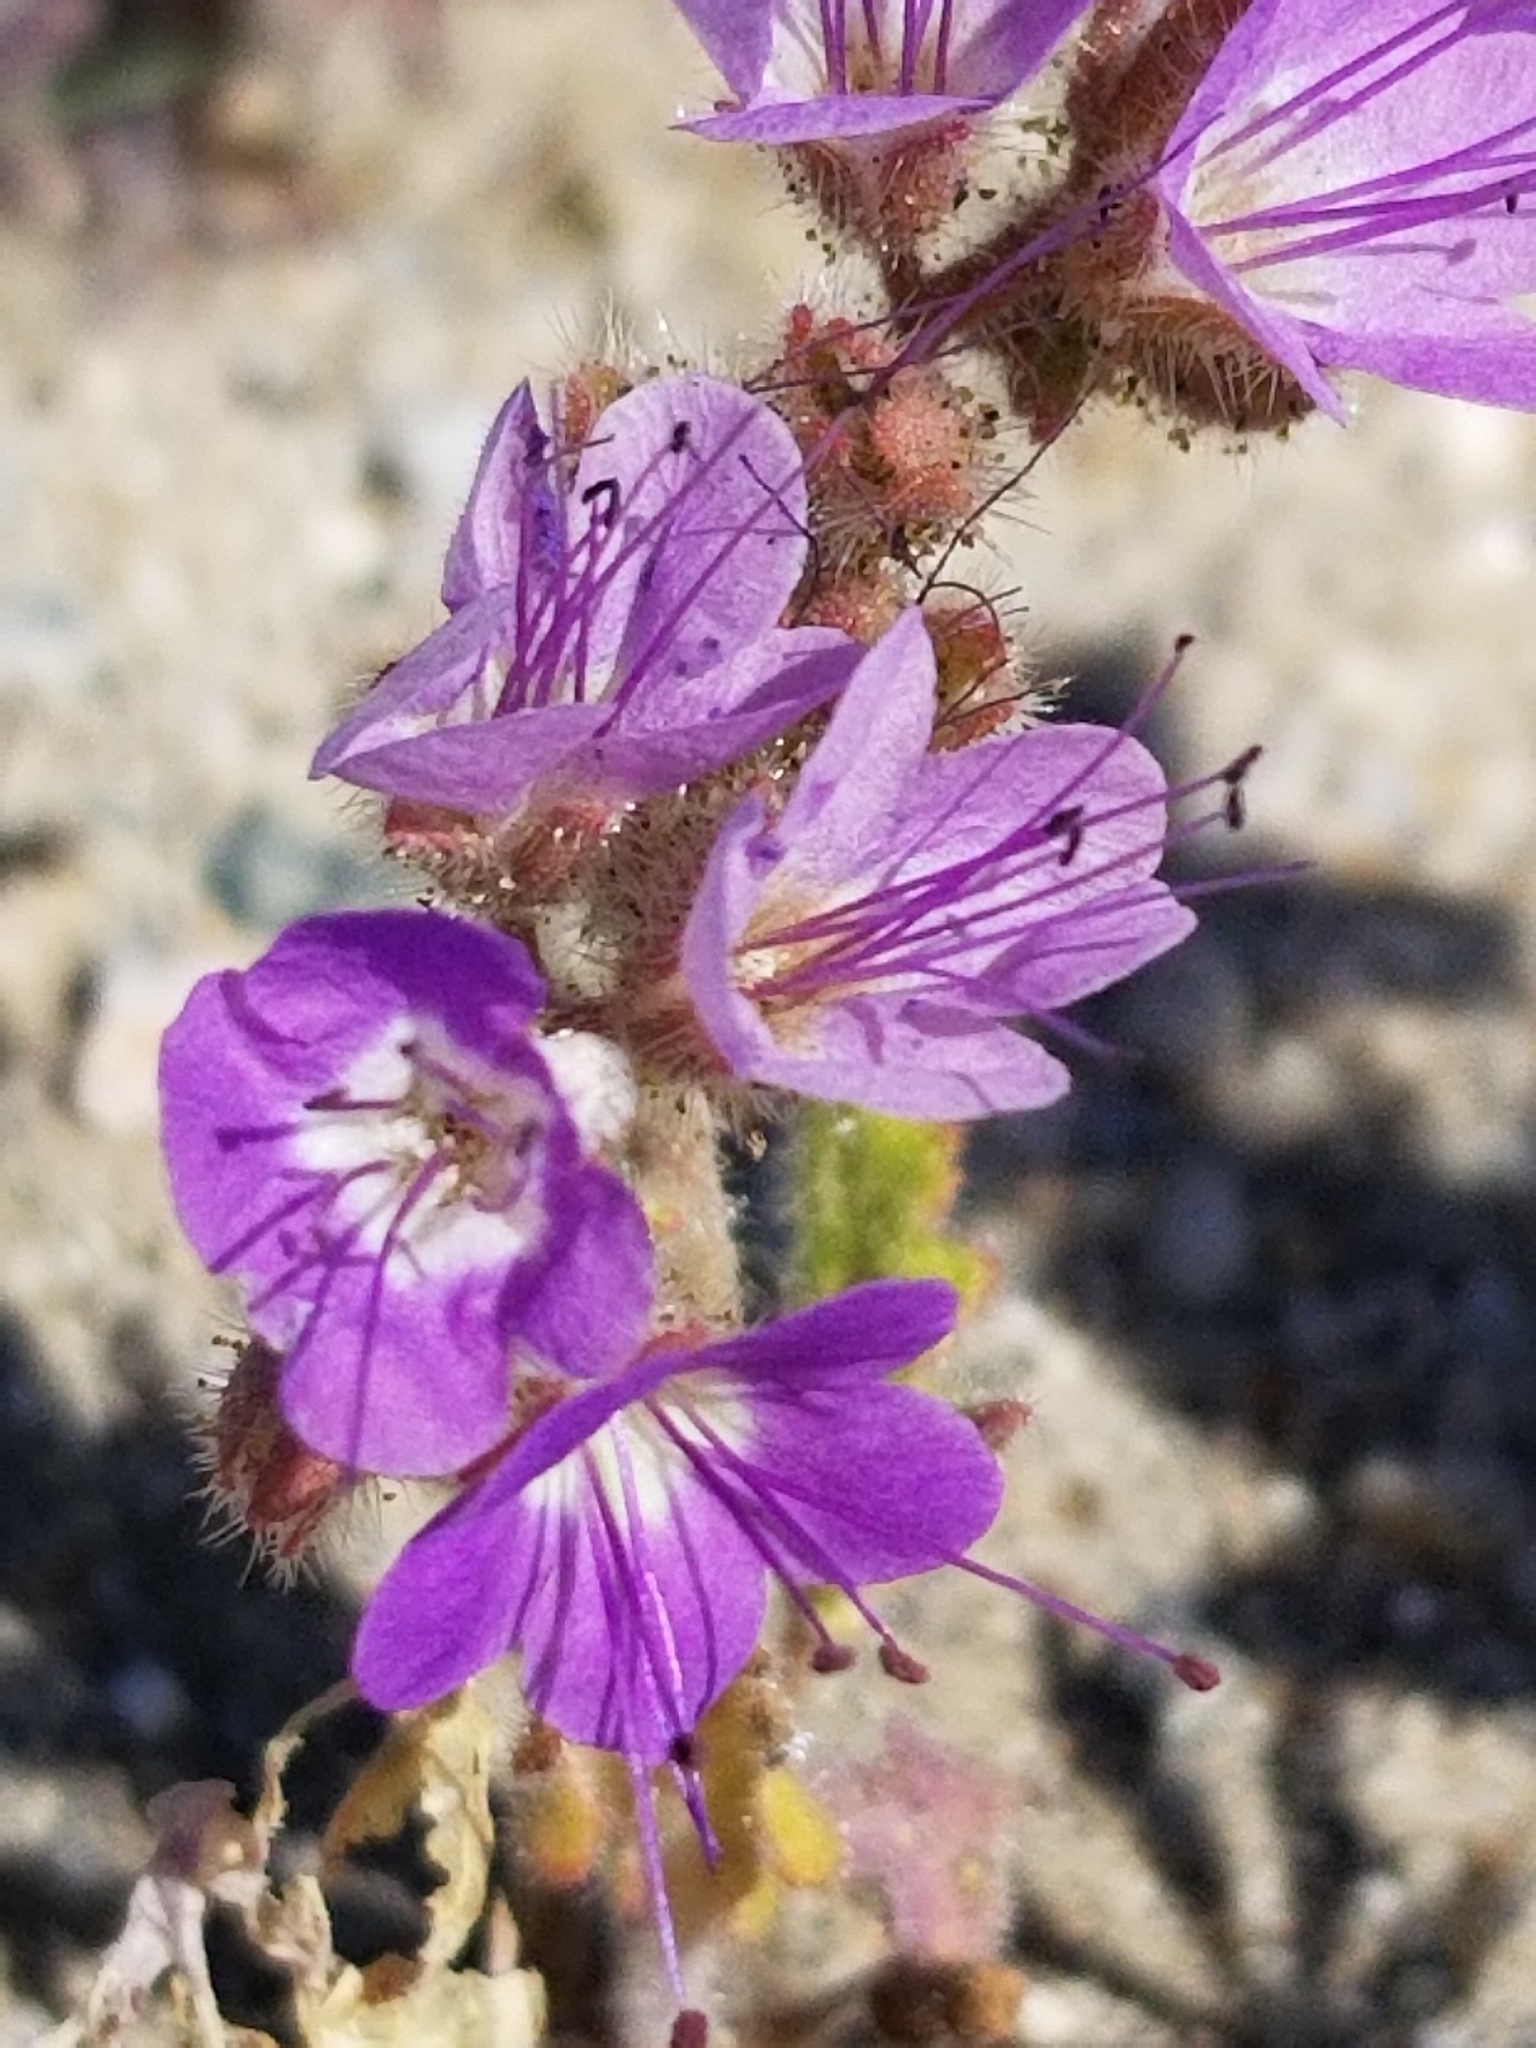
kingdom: Plantae
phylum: Tracheophyta
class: Magnoliopsida
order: Boraginales
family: Hydrophyllaceae
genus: Phacelia
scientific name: Phacelia crenulata
